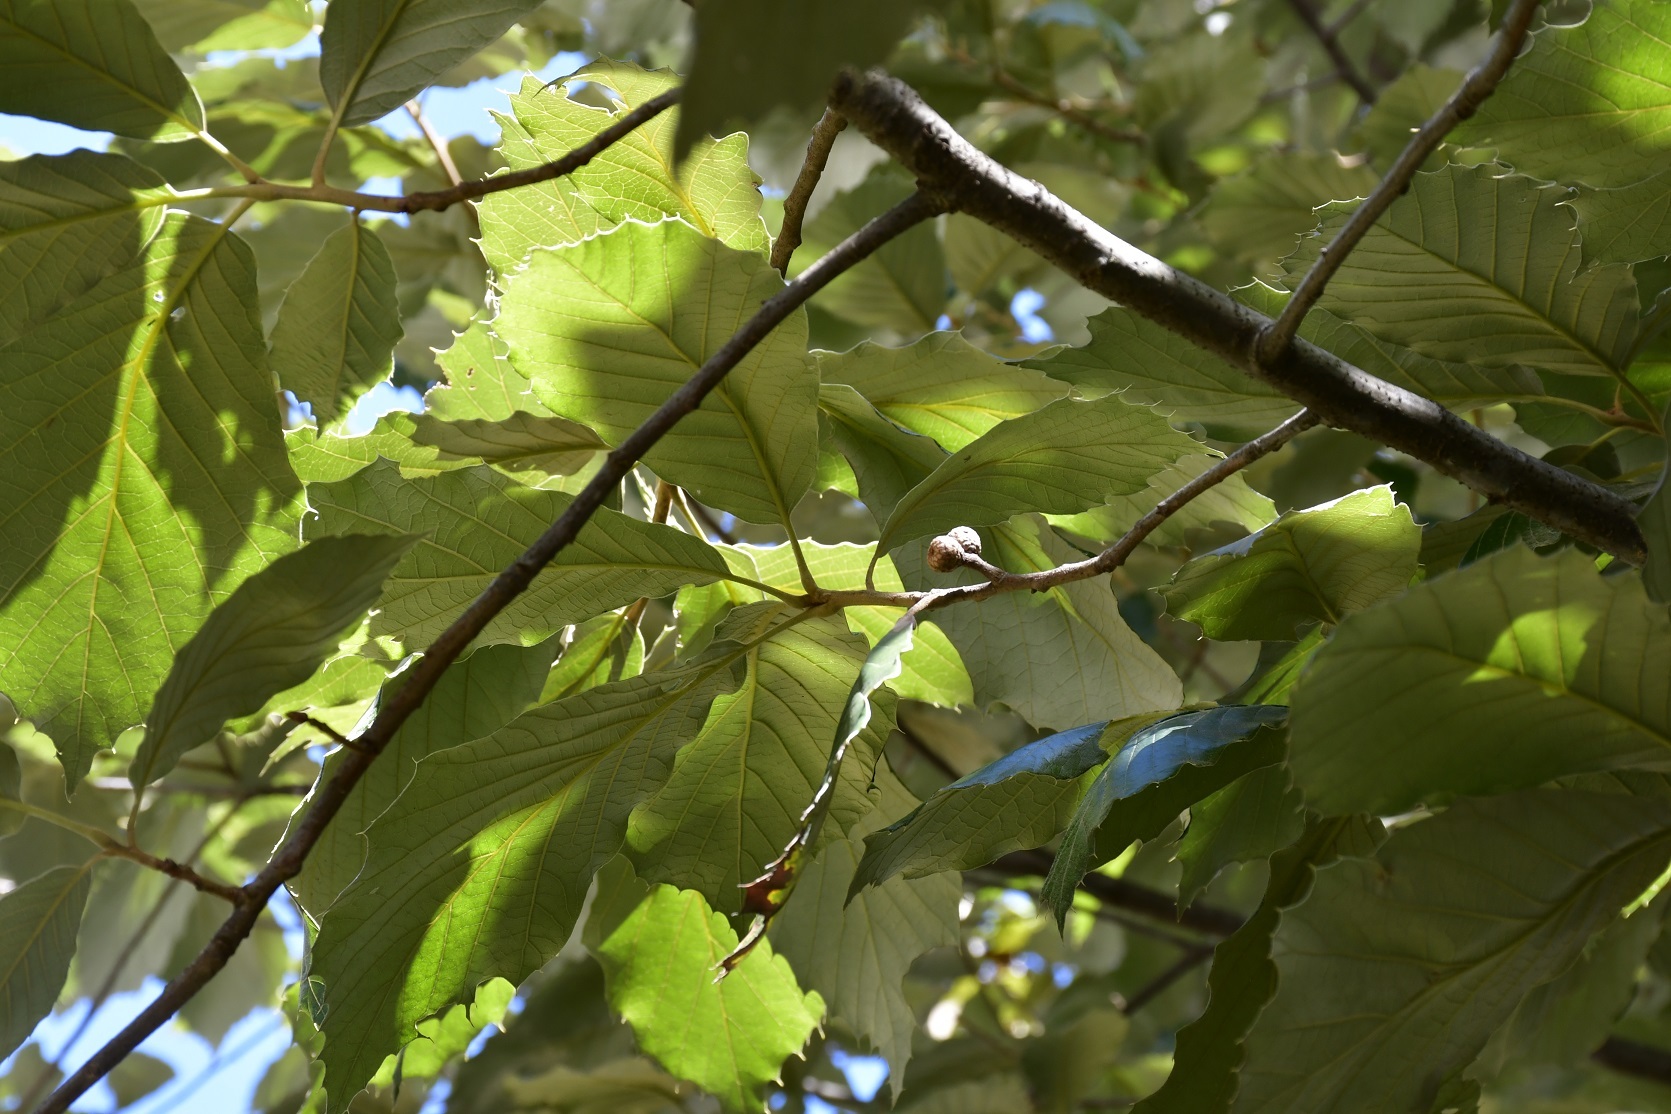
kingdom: Plantae
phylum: Tracheophyta
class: Magnoliopsida
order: Fagales
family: Fagaceae
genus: Quercus
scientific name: Quercus calophylla
